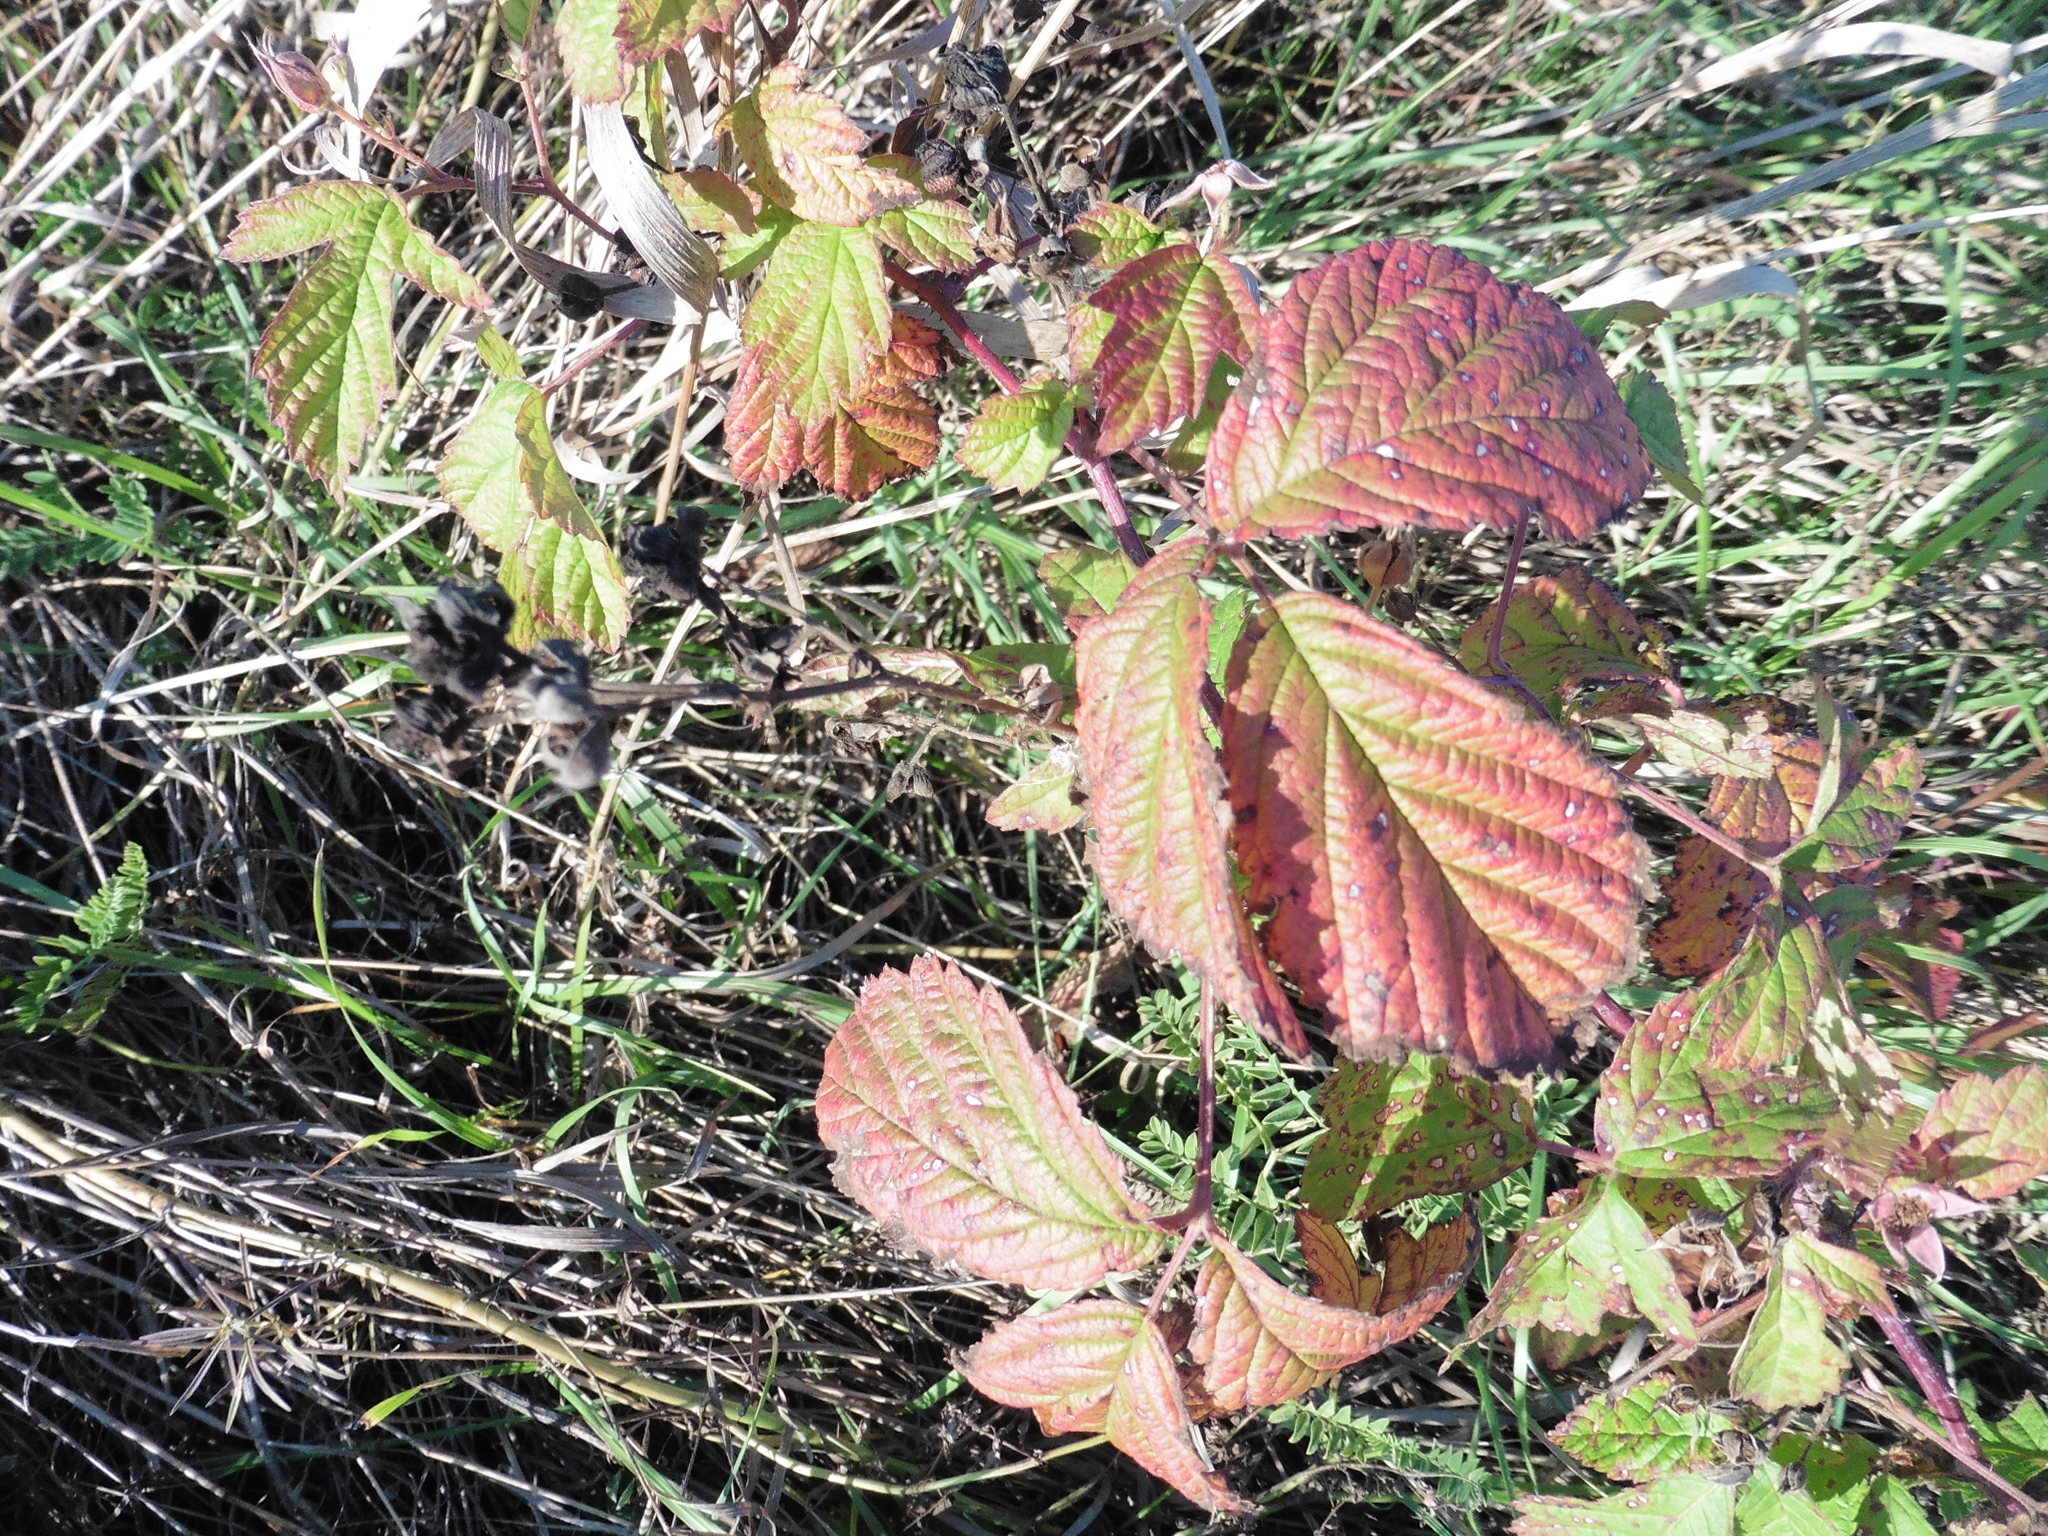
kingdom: Plantae
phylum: Tracheophyta
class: Magnoliopsida
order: Rosales
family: Rosaceae
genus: Rubus
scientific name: Rubus caesius
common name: Dewberry
